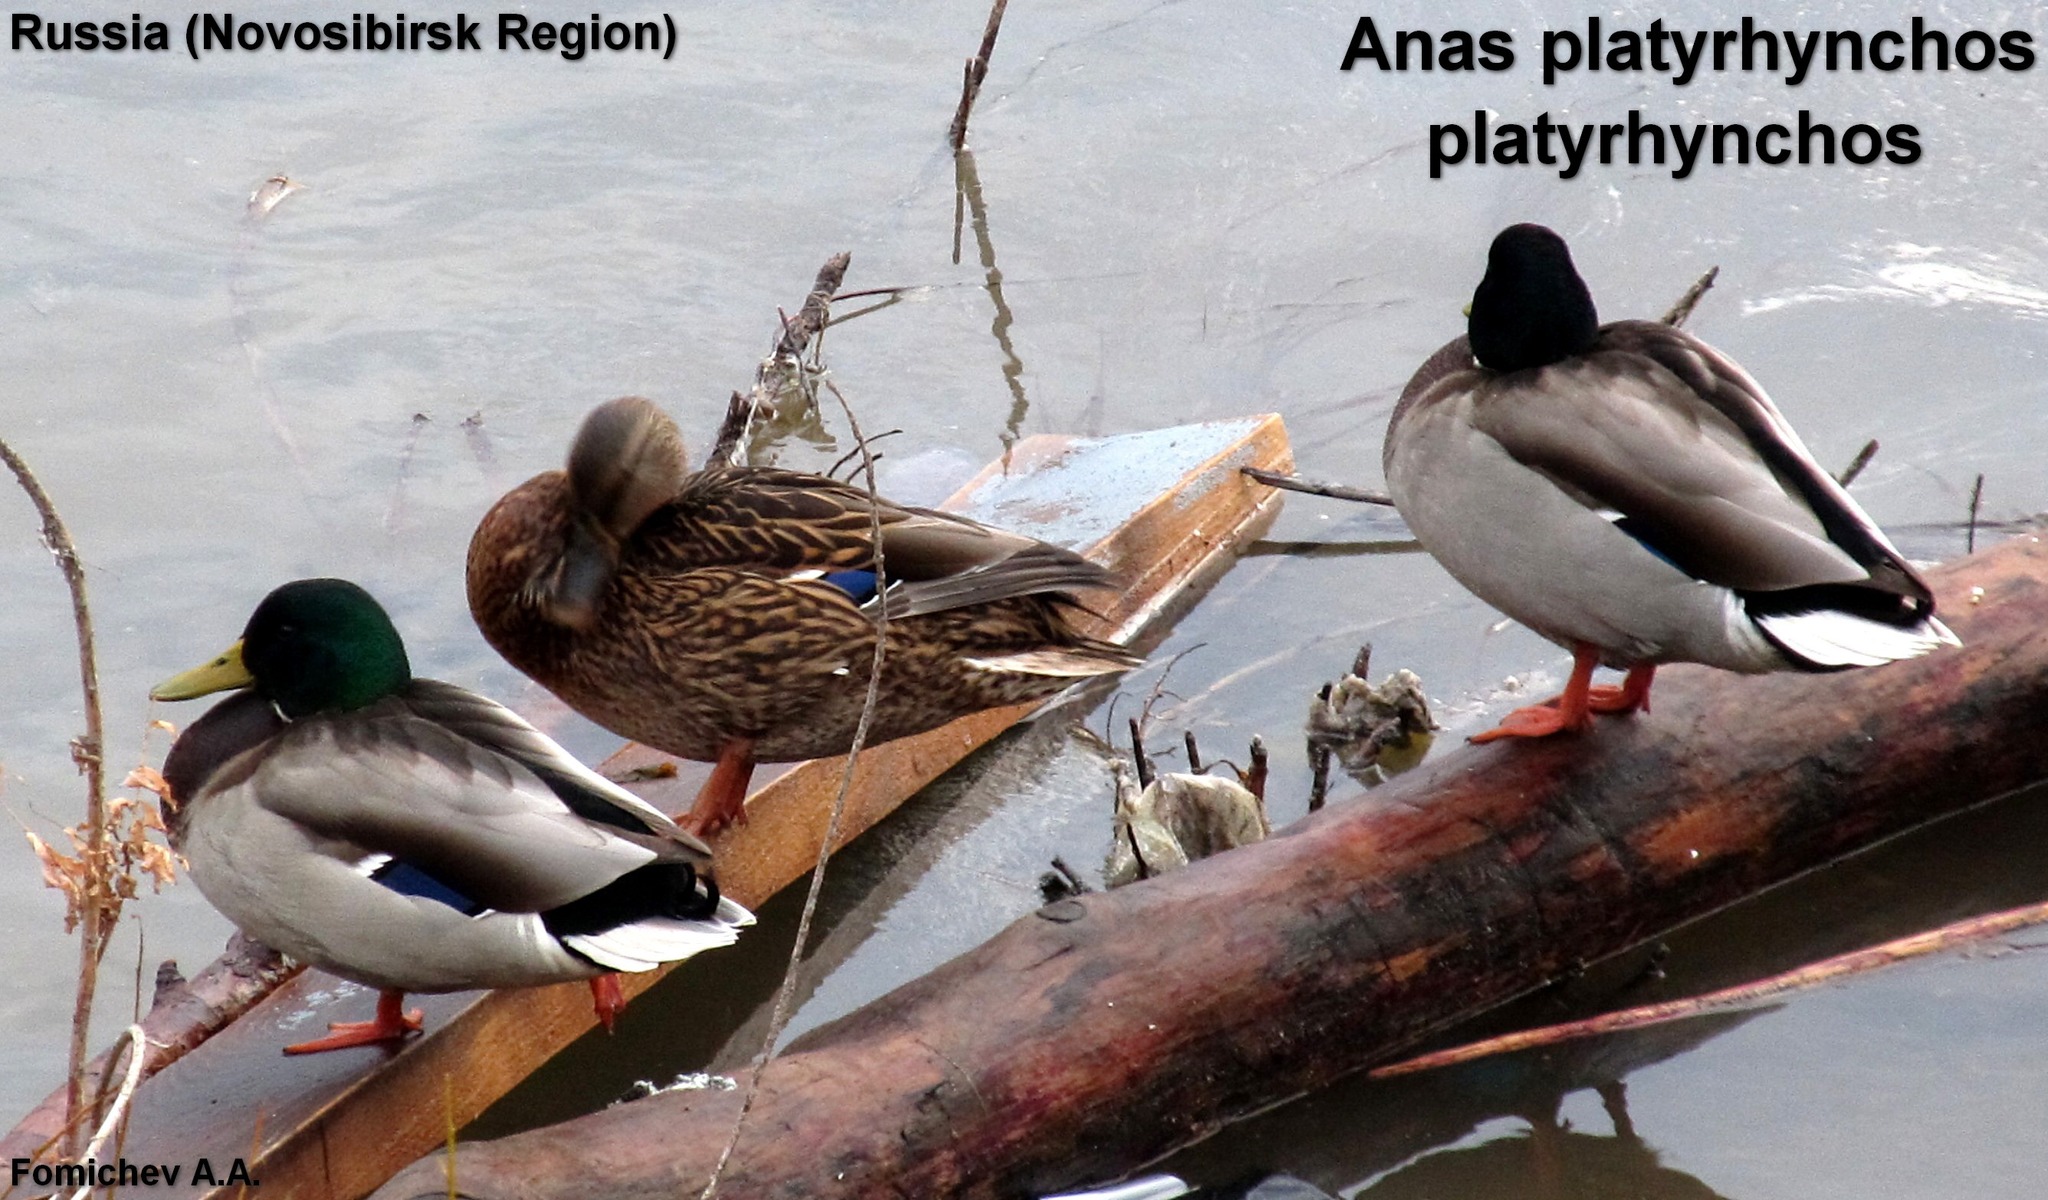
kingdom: Animalia
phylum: Chordata
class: Aves
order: Anseriformes
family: Anatidae
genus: Anas
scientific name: Anas platyrhynchos
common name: Mallard
